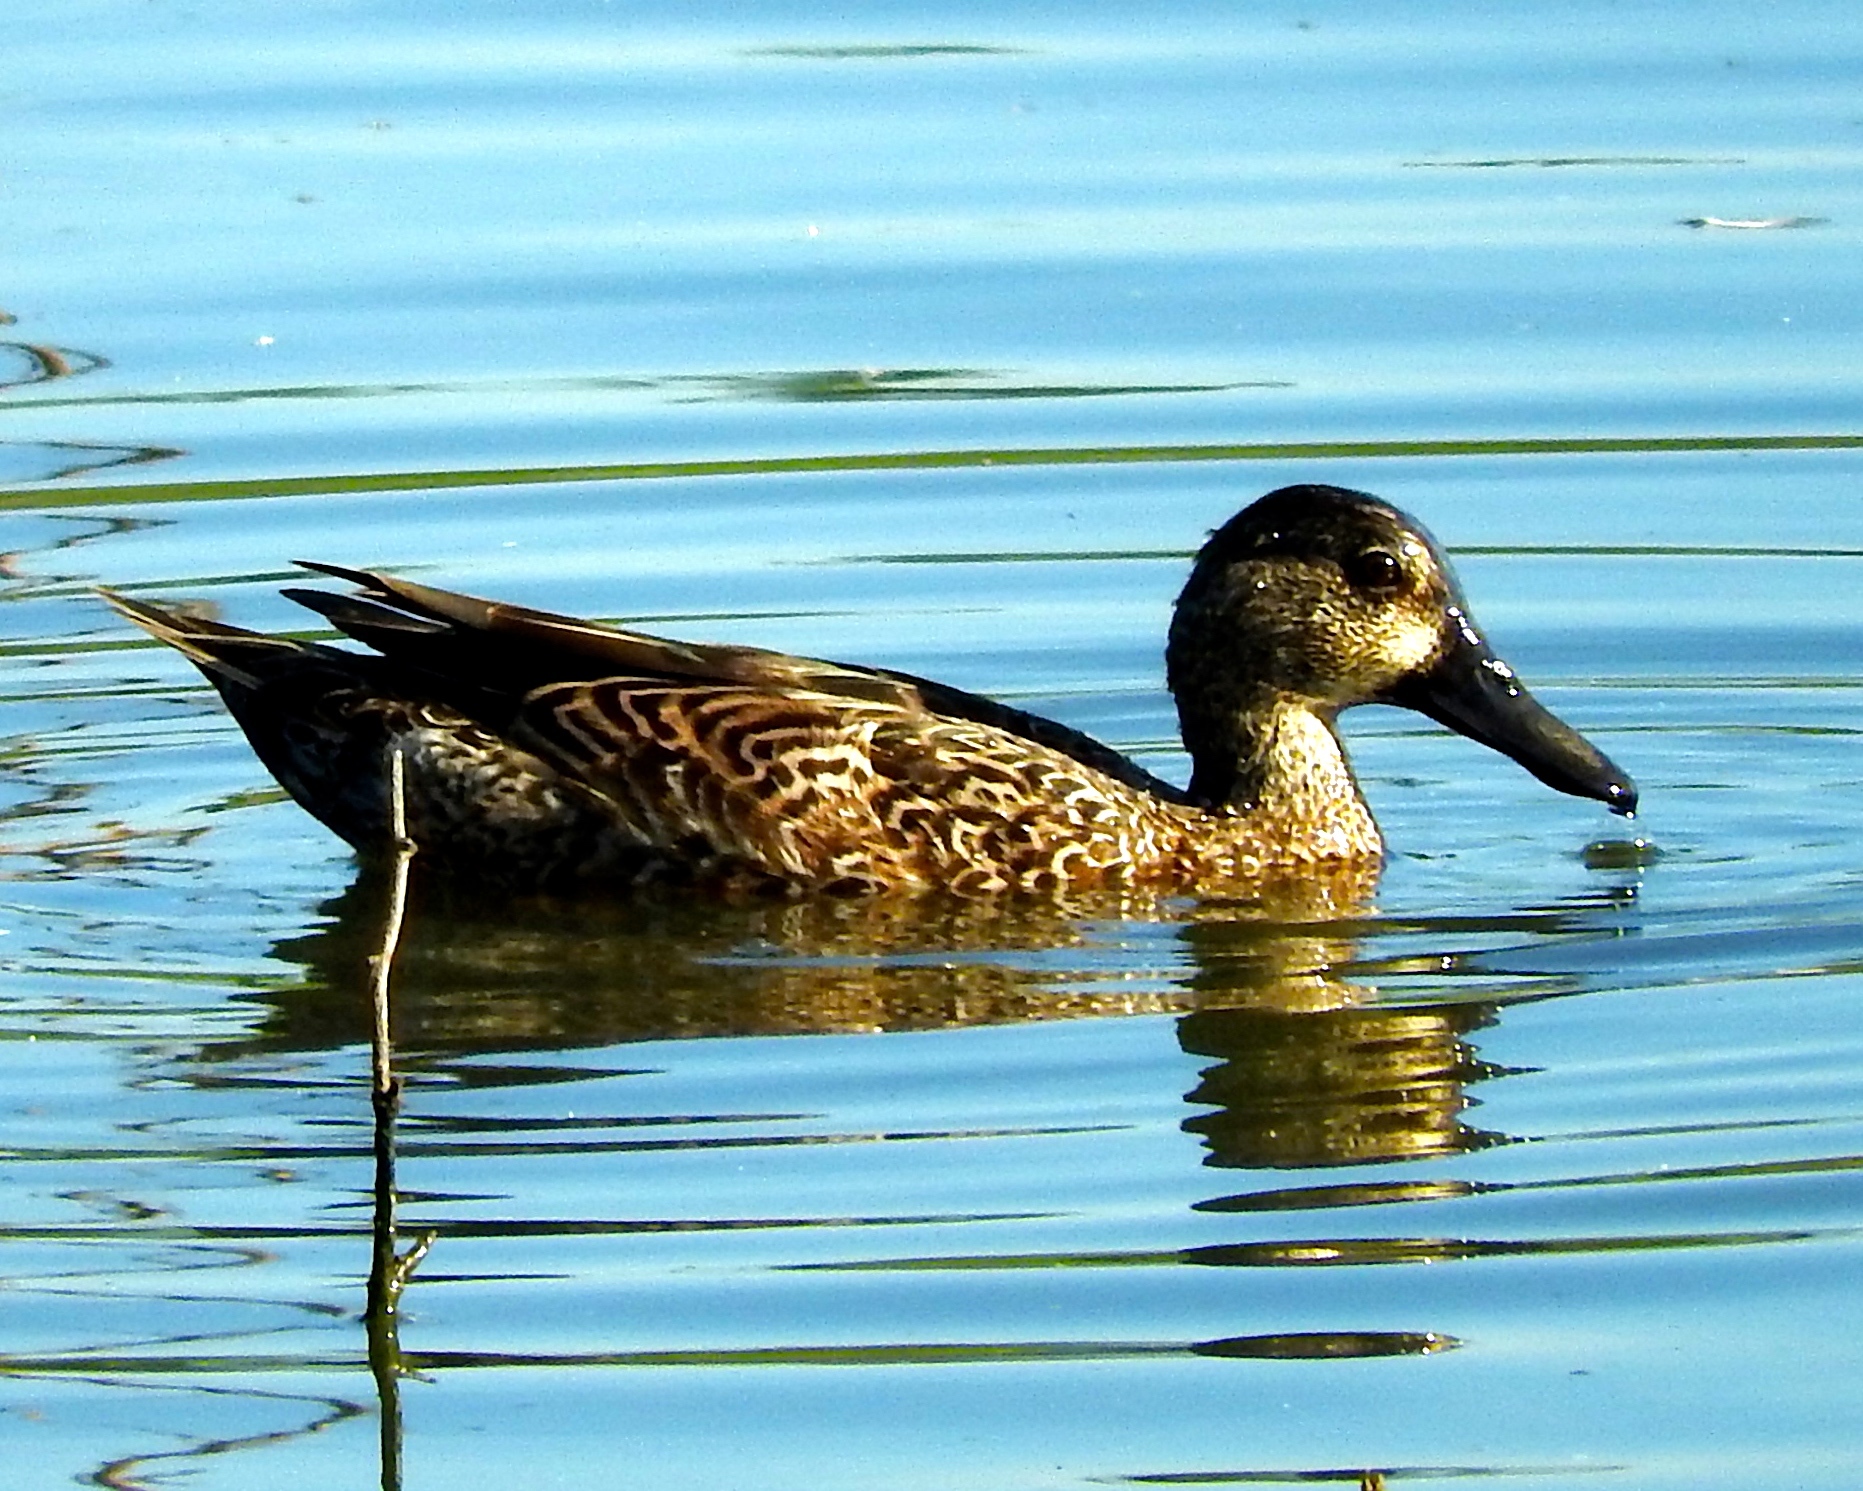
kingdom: Animalia
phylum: Chordata
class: Aves
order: Anseriformes
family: Anatidae
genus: Spatula
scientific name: Spatula discors
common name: Blue-winged teal
